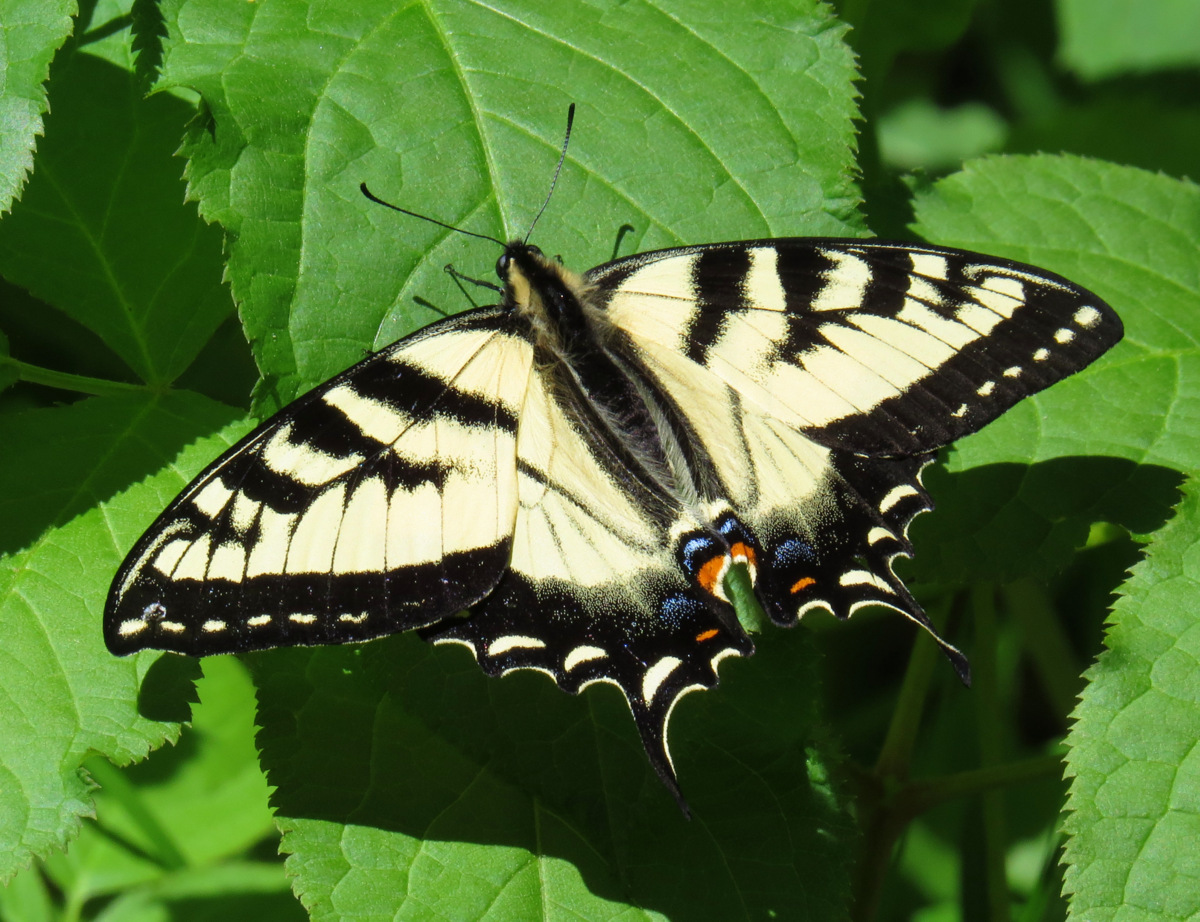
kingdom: Animalia
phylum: Arthropoda
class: Insecta
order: Lepidoptera
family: Papilionidae
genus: Papilio
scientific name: Papilio canadensis
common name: Canadian tiger swallowtail
